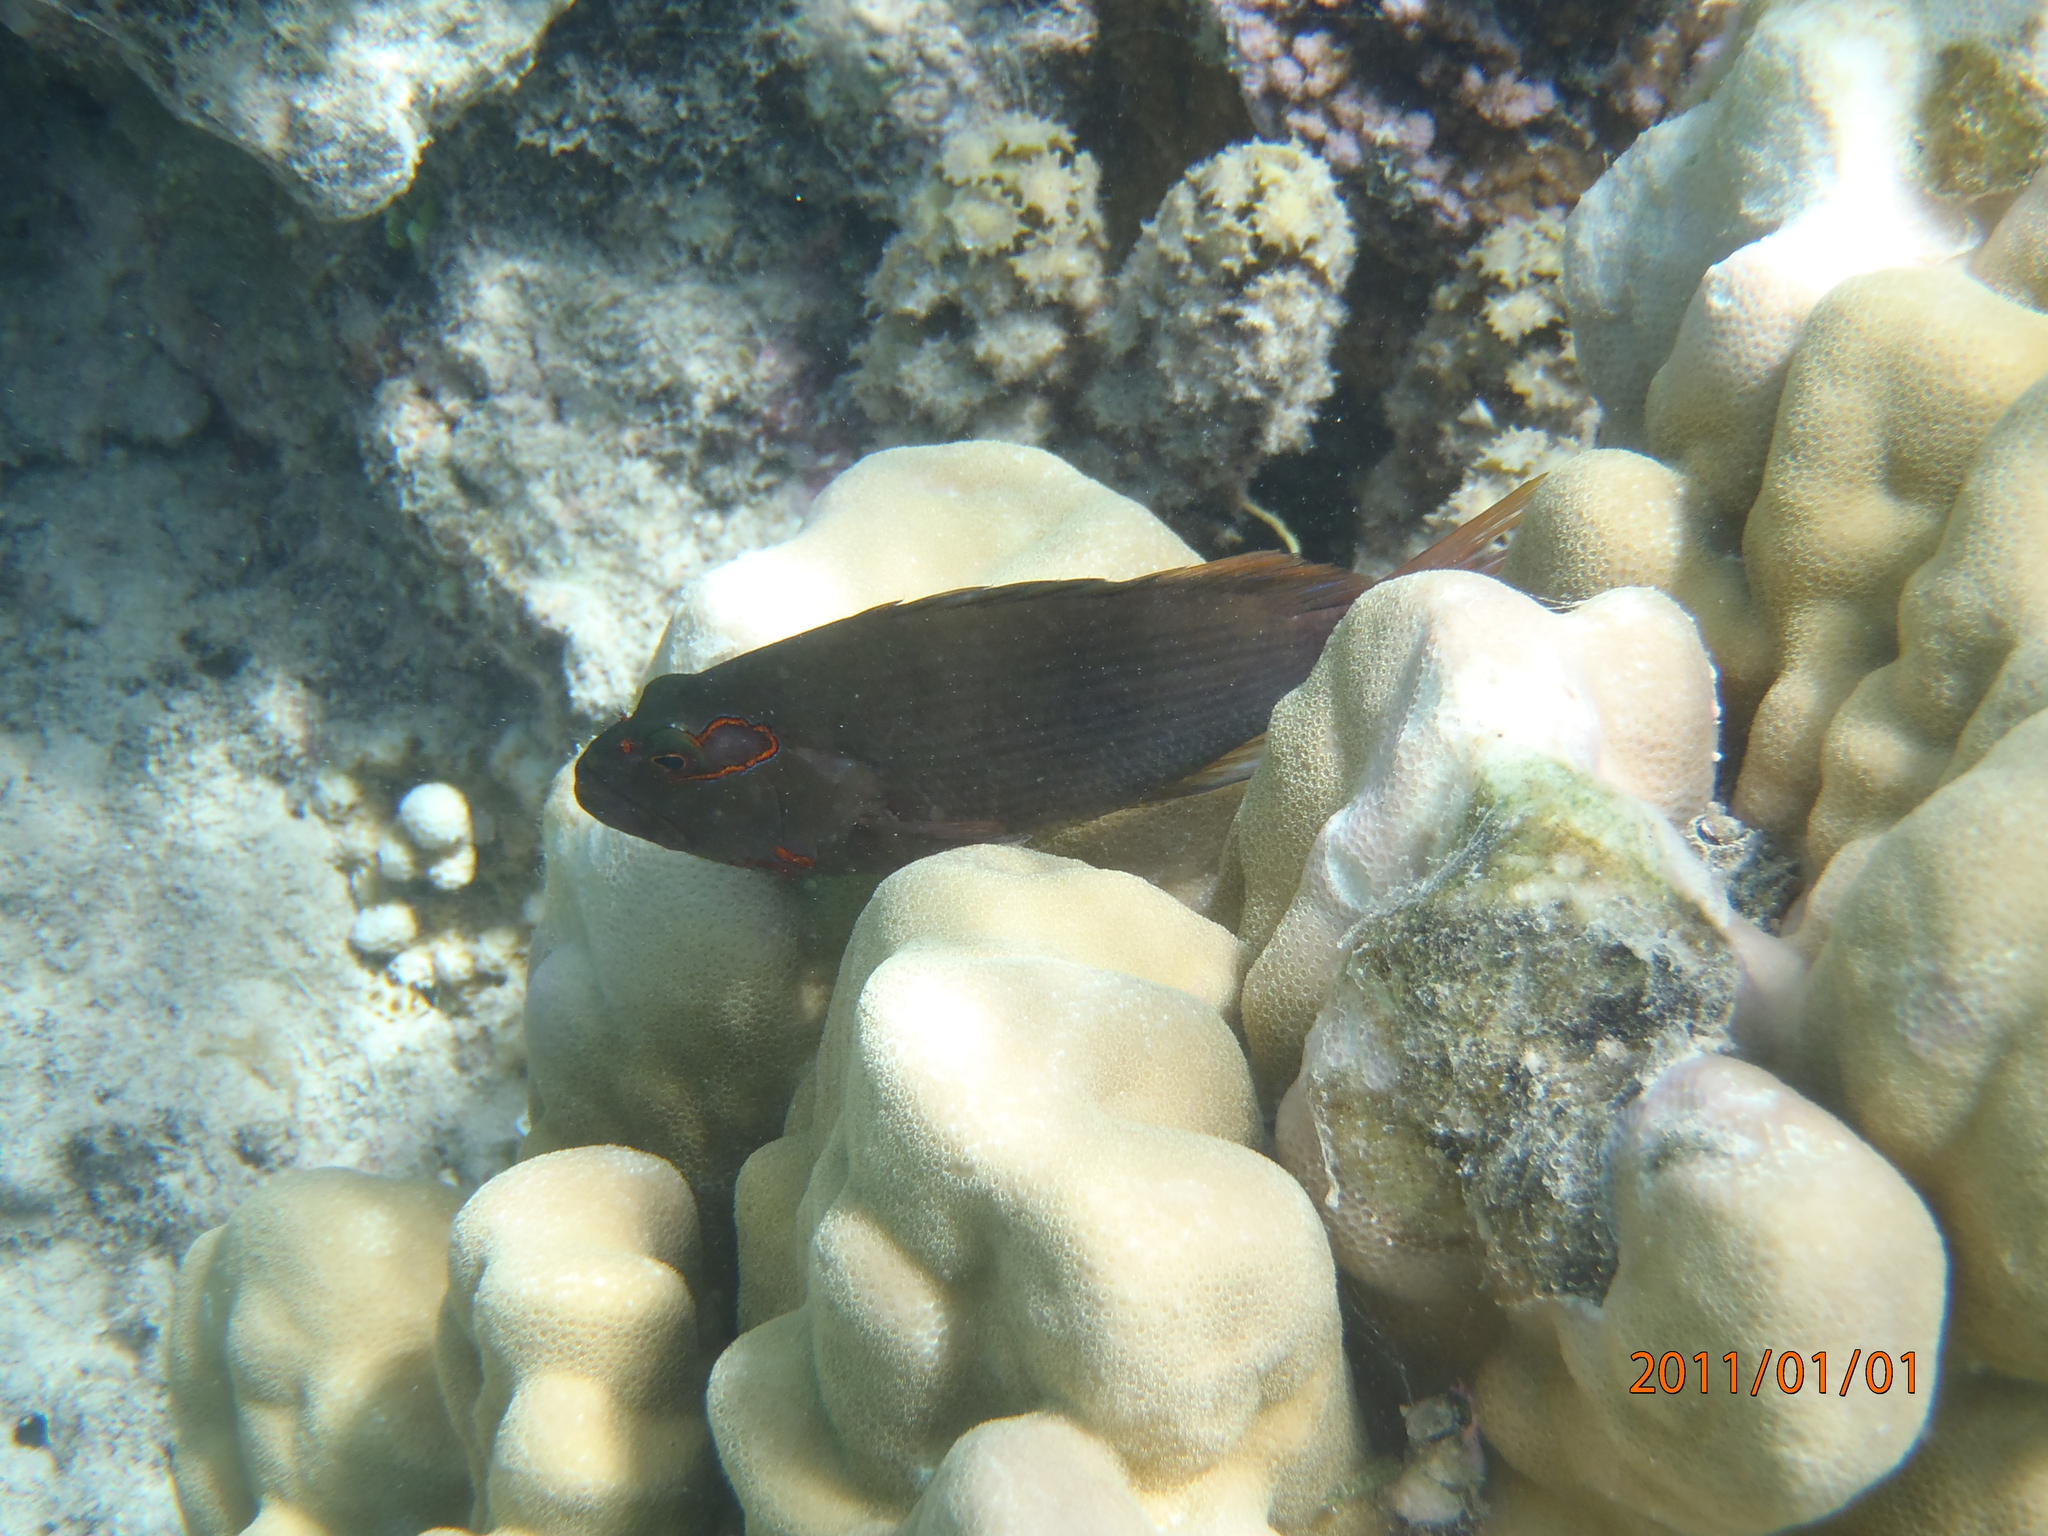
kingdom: Animalia
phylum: Chordata
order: Perciformes
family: Cirrhitidae
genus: Paracirrhites
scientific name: Paracirrhites arcatus
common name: Arc-eye hawkfish
